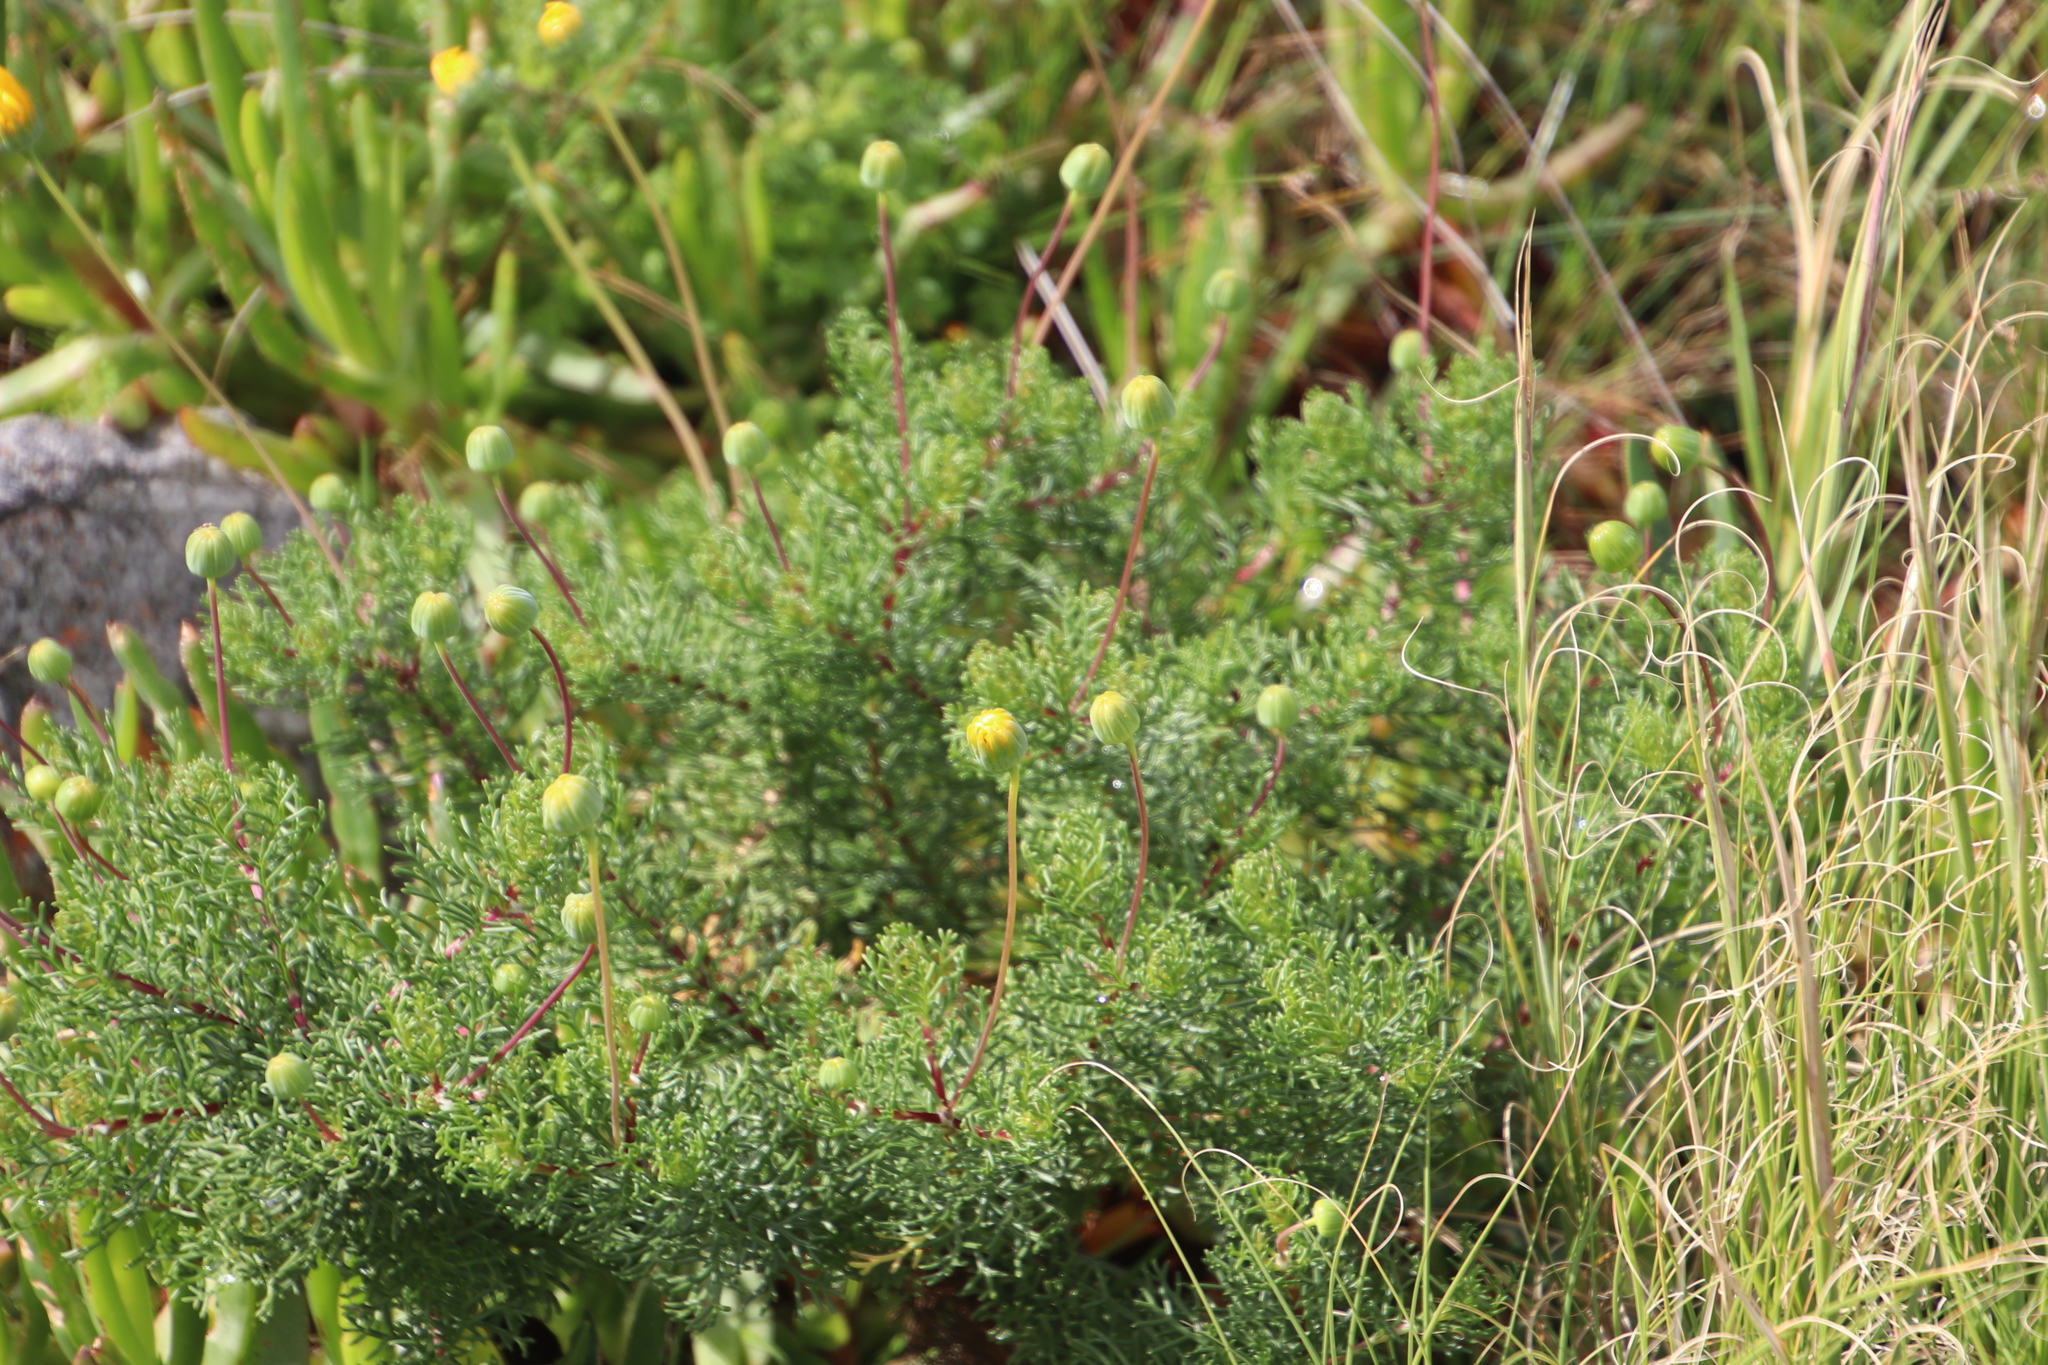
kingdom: Plantae
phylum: Tracheophyta
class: Magnoliopsida
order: Asterales
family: Asteraceae
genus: Euryops
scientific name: Euryops abrotanifolius
